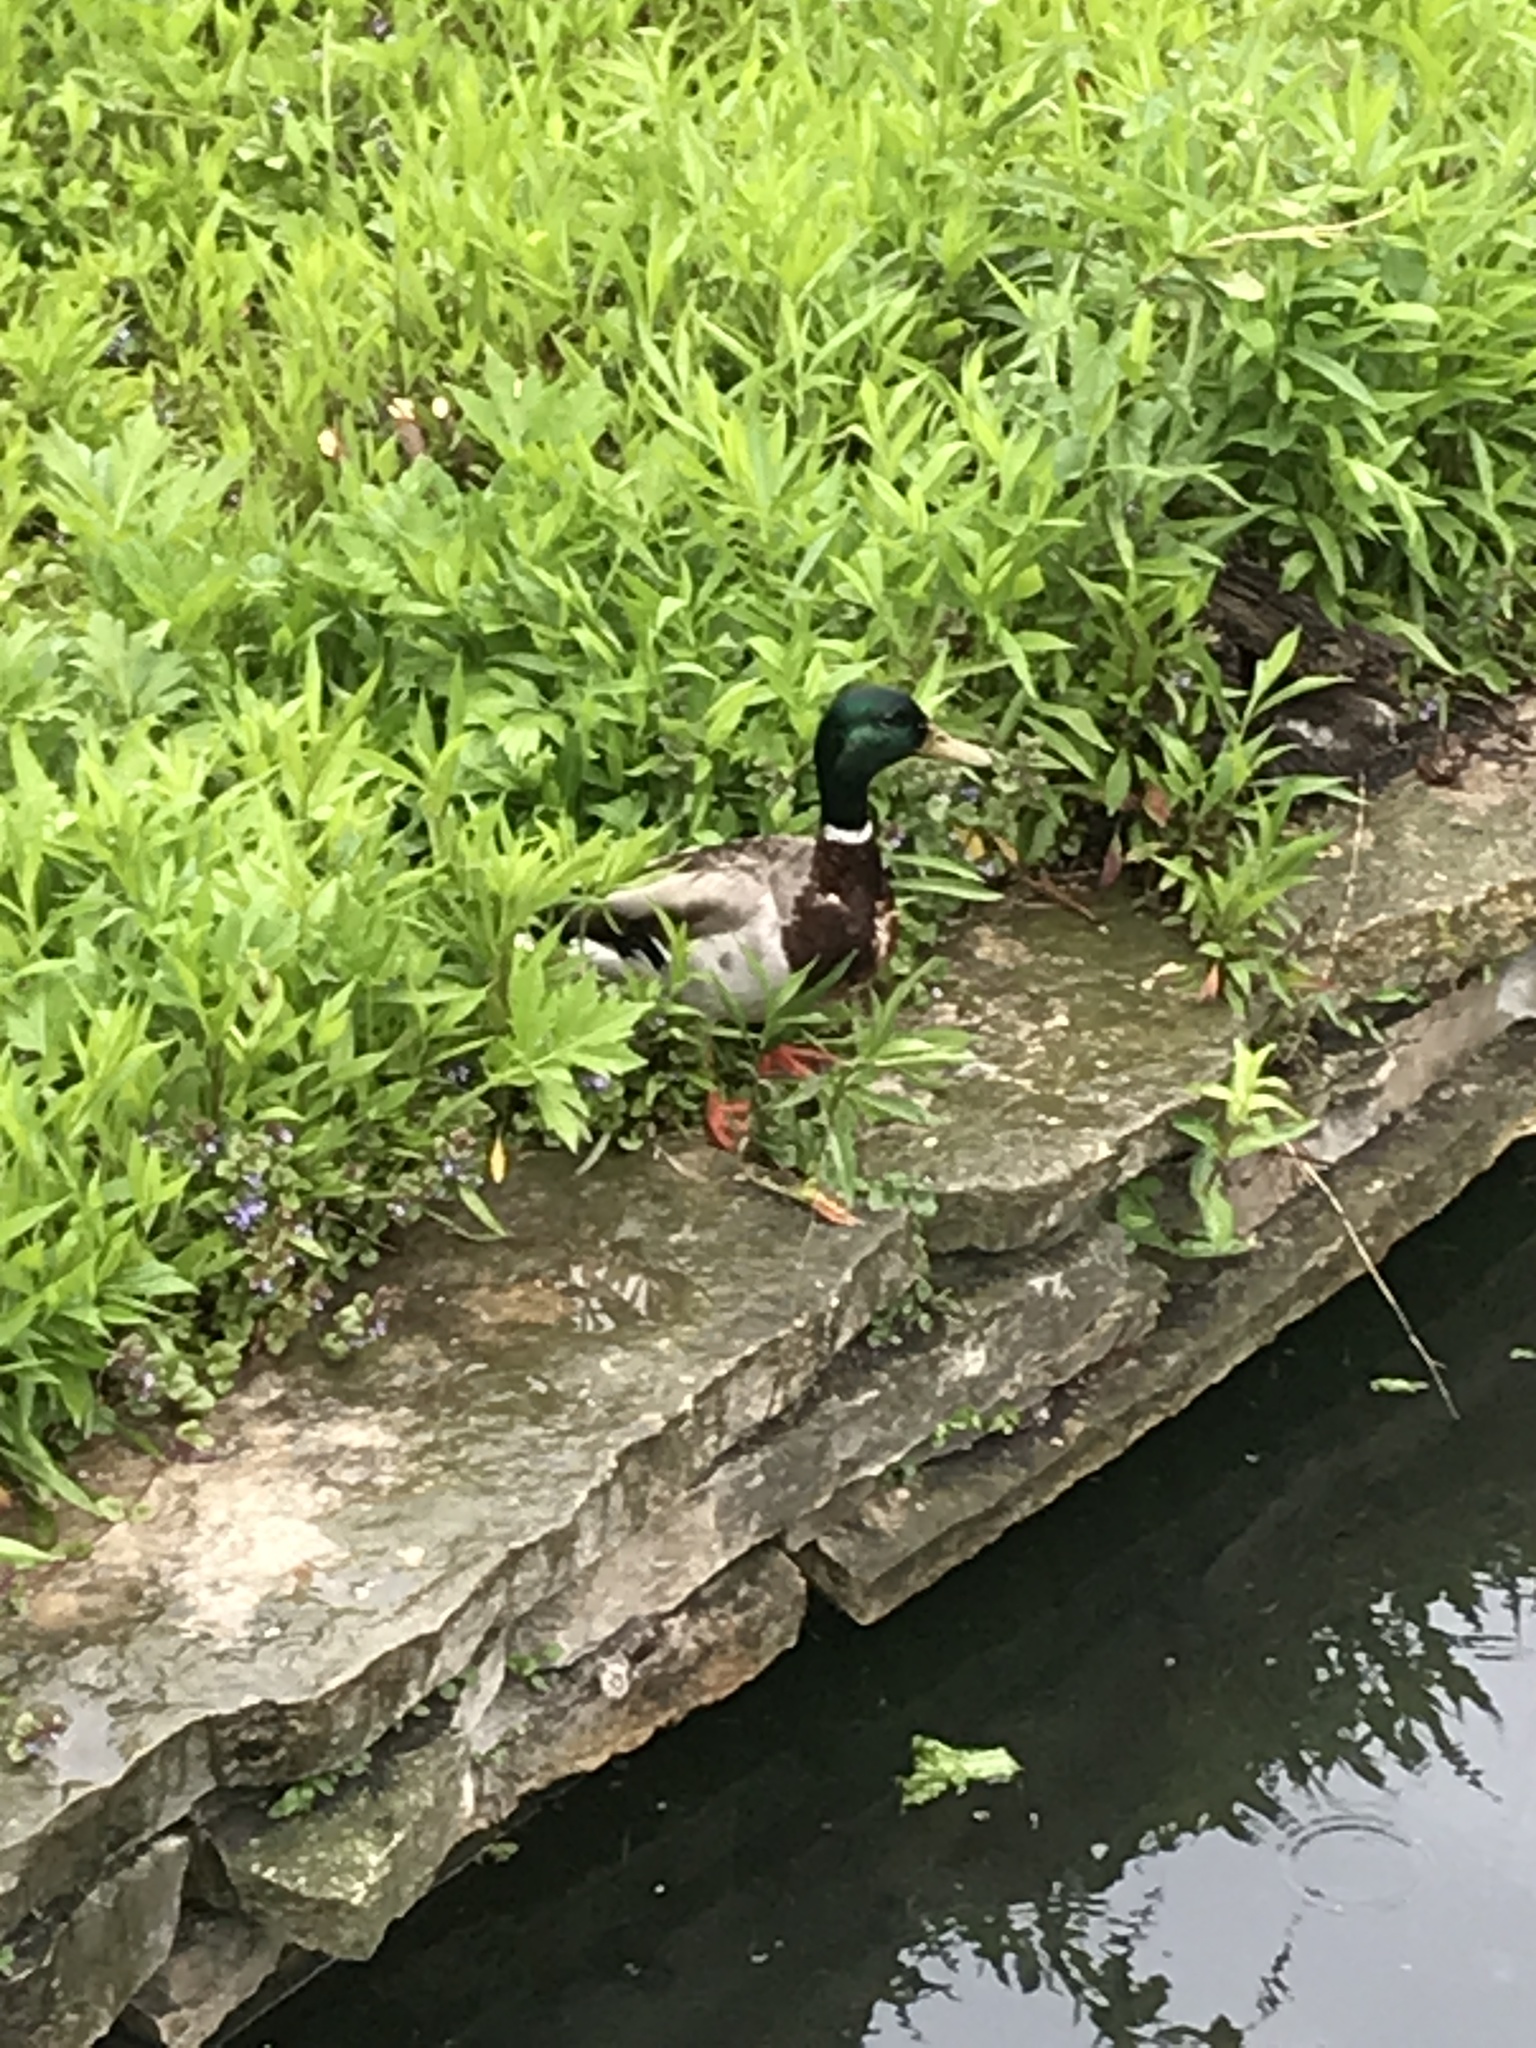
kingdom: Animalia
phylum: Chordata
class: Aves
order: Anseriformes
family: Anatidae
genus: Anas
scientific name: Anas platyrhynchos
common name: Mallard
